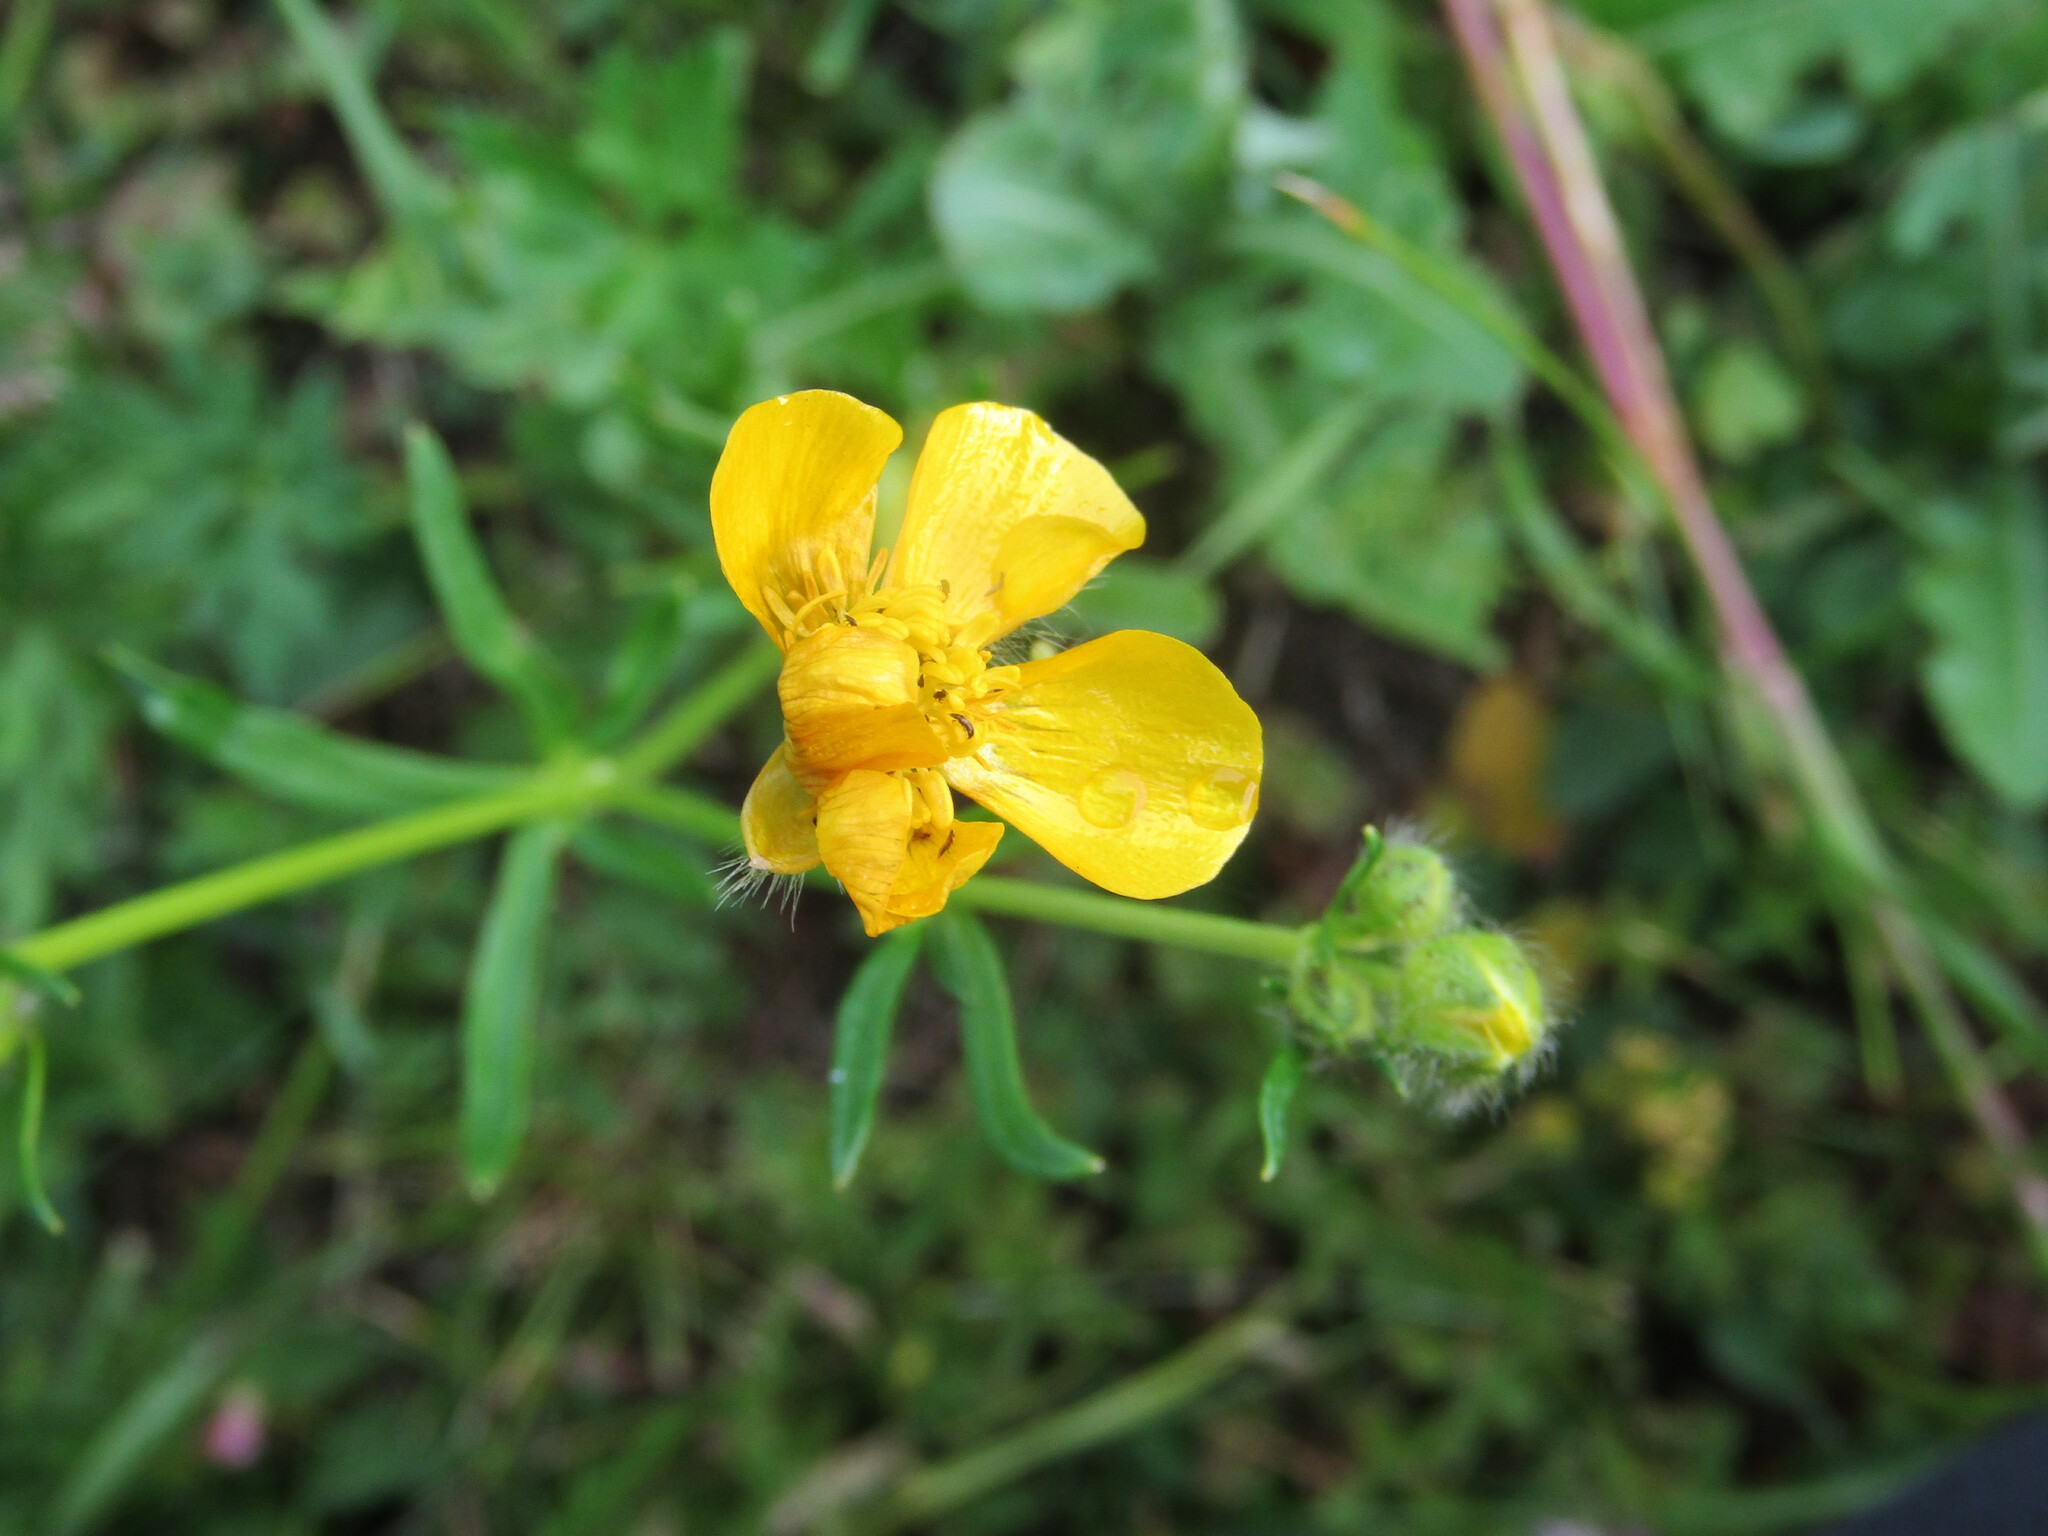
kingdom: Plantae
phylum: Tracheophyta
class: Magnoliopsida
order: Ranunculales
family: Ranunculaceae
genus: Ranunculus
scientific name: Ranunculus polyanthemos
